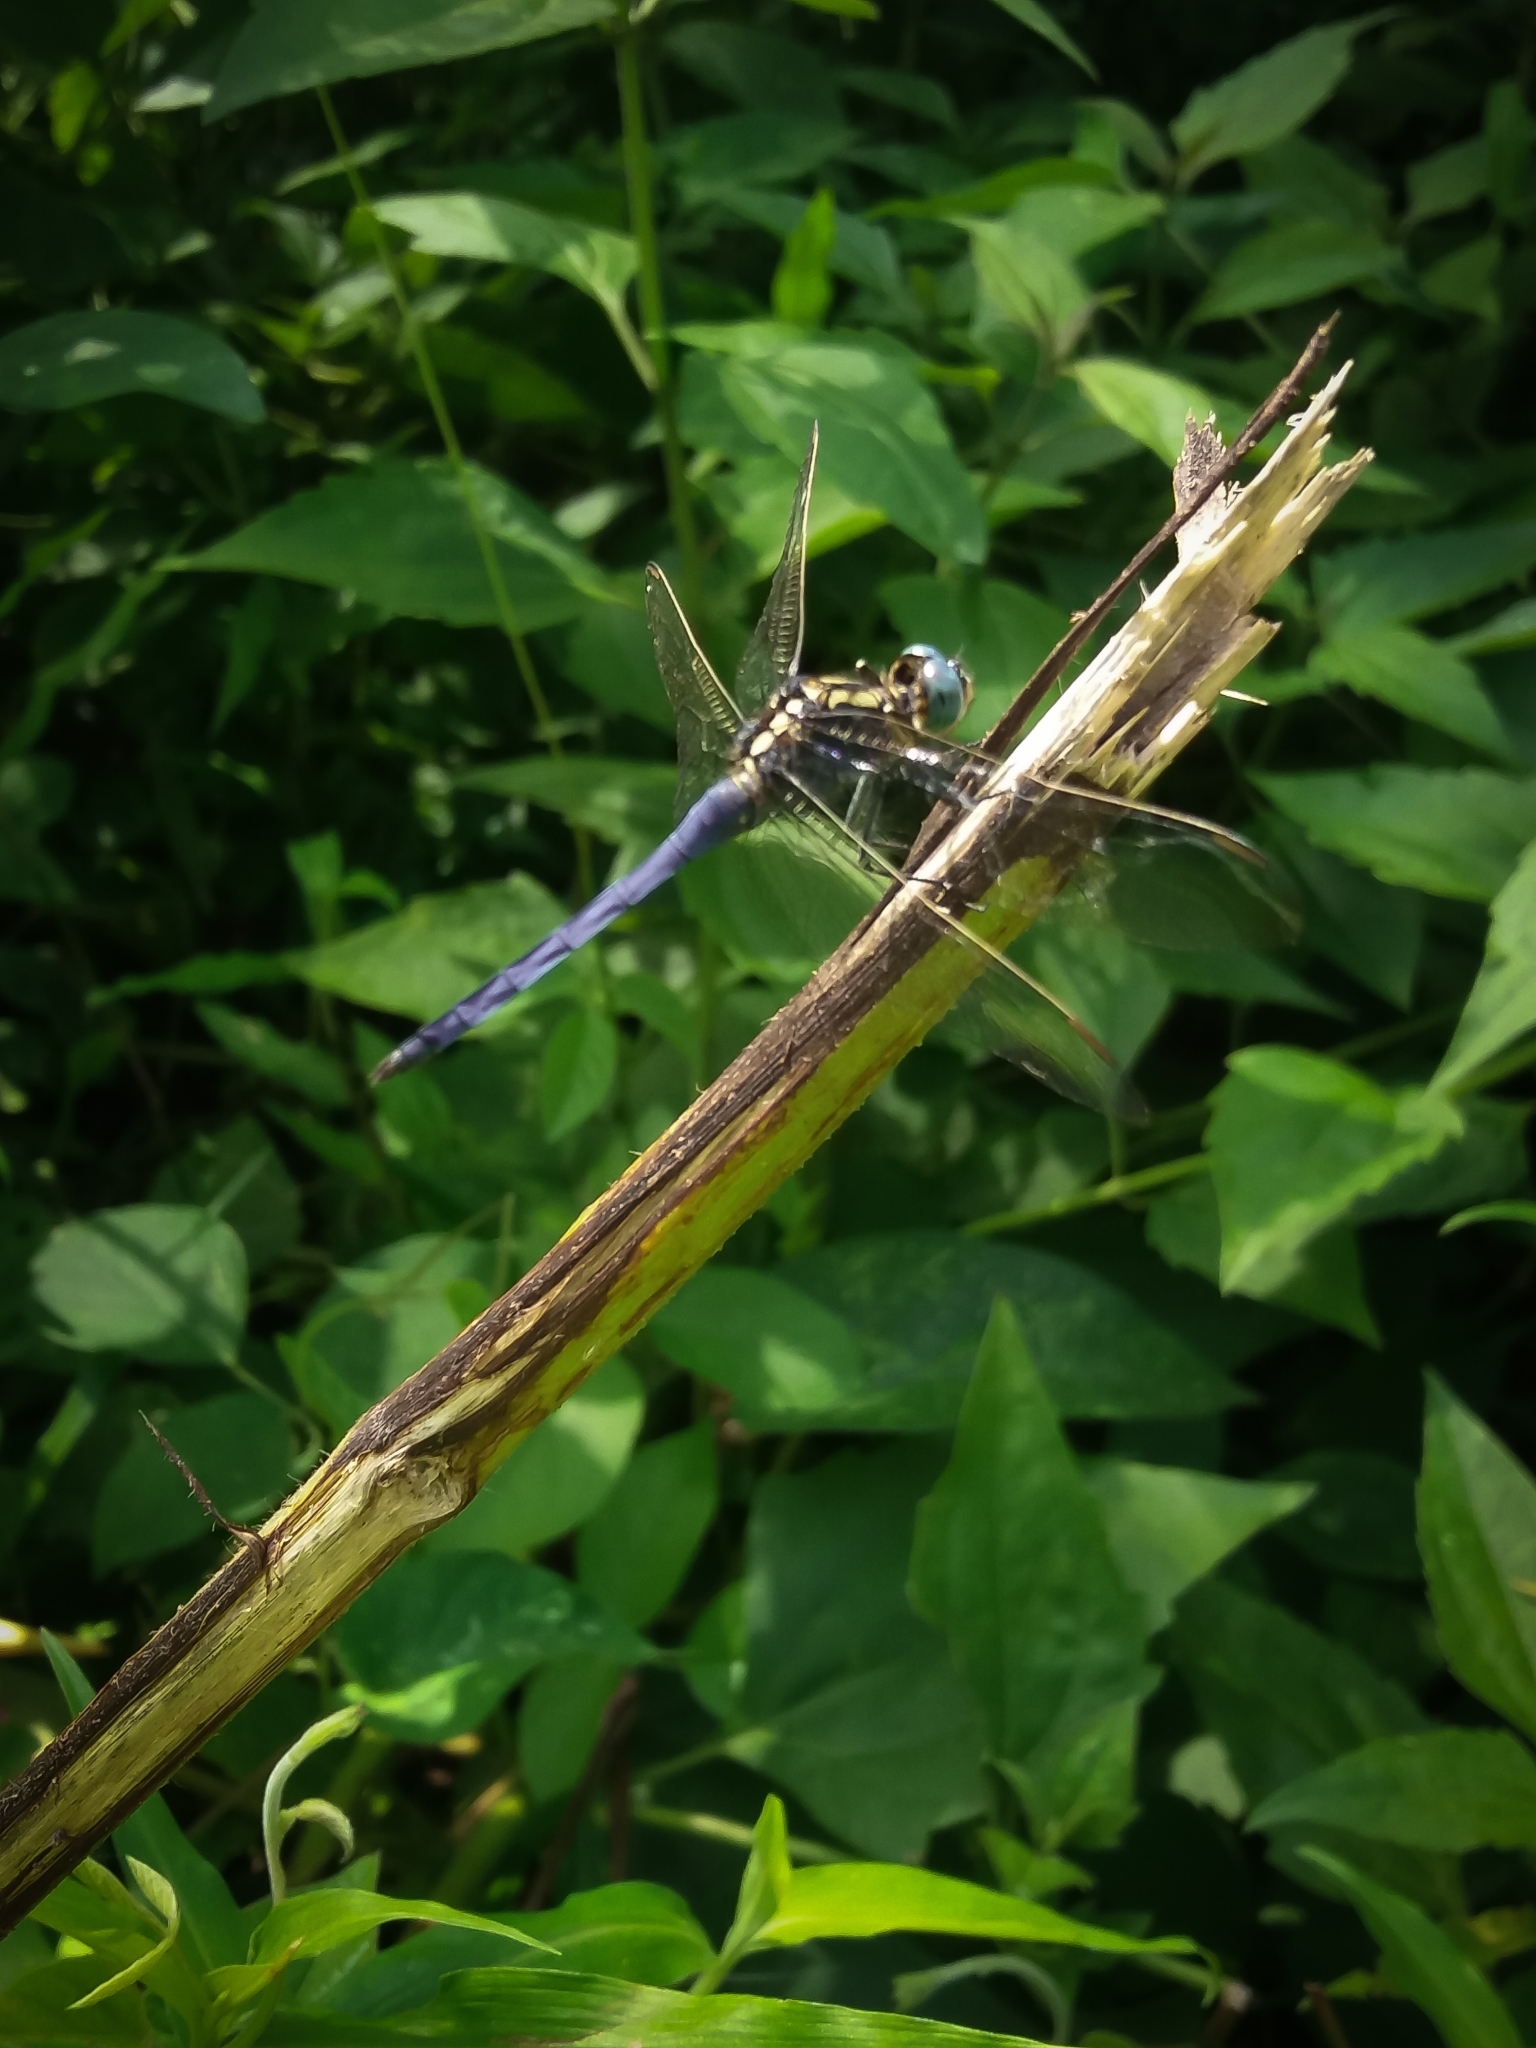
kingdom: Animalia
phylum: Arthropoda
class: Insecta
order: Odonata
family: Libellulidae
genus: Orthetrum
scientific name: Orthetrum luzonicum
